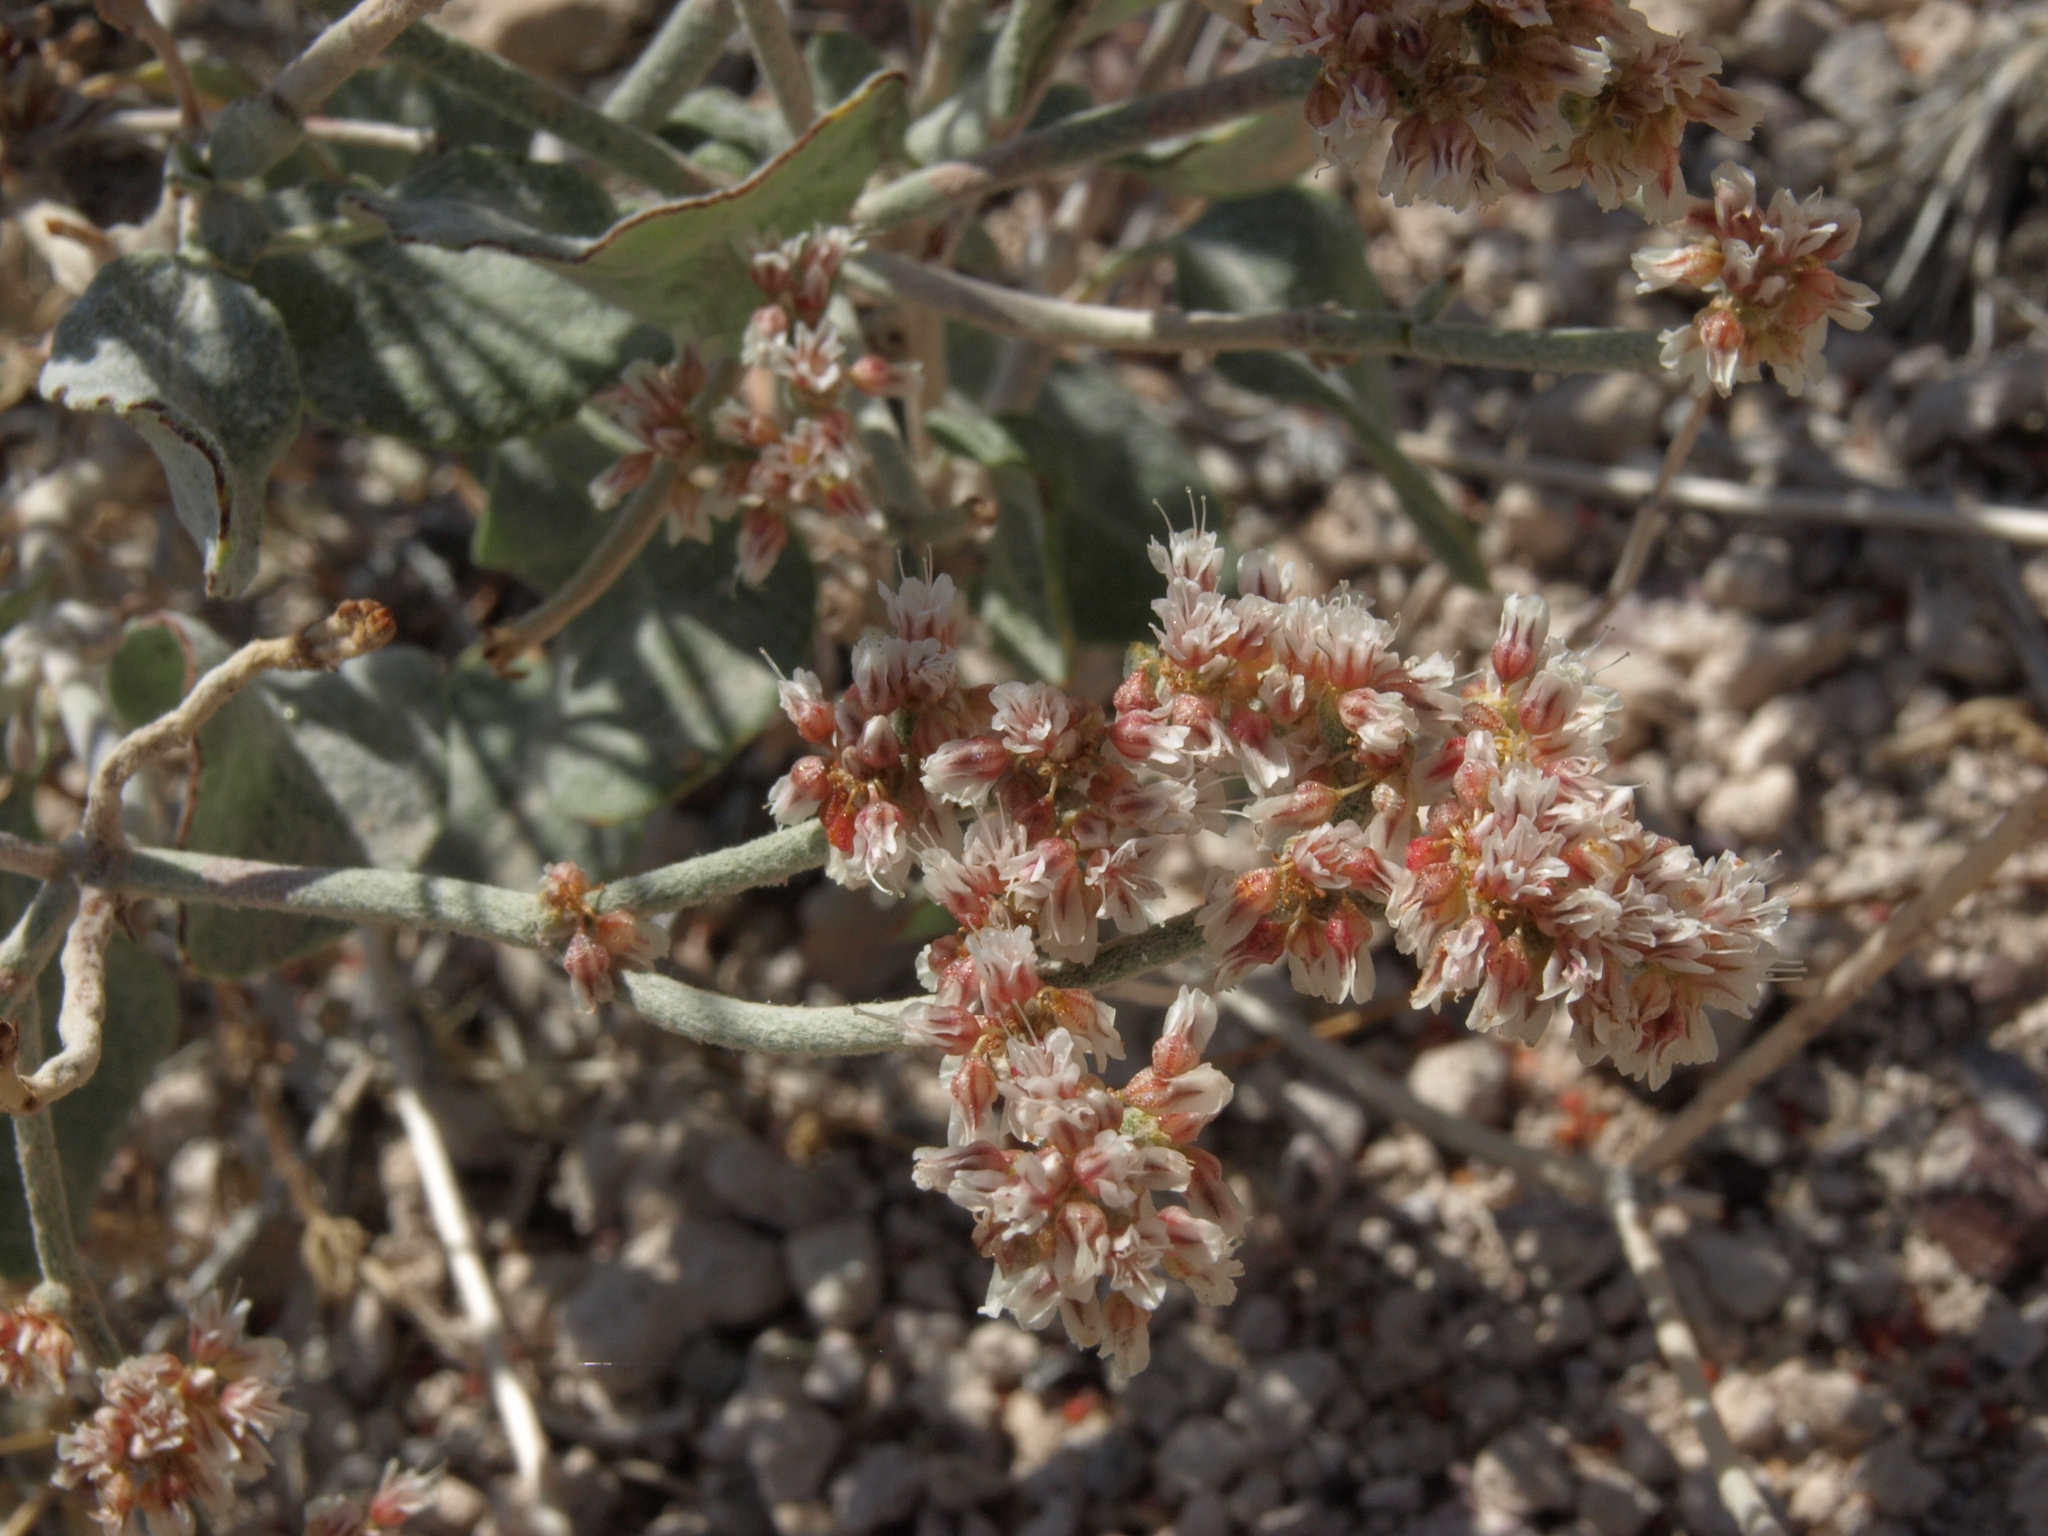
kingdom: Plantae
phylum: Tracheophyta
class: Magnoliopsida
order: Caryophyllales
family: Polygonaceae
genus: Eriogonum
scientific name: Eriogonum nummulare
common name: Kearney wild buckwheat
